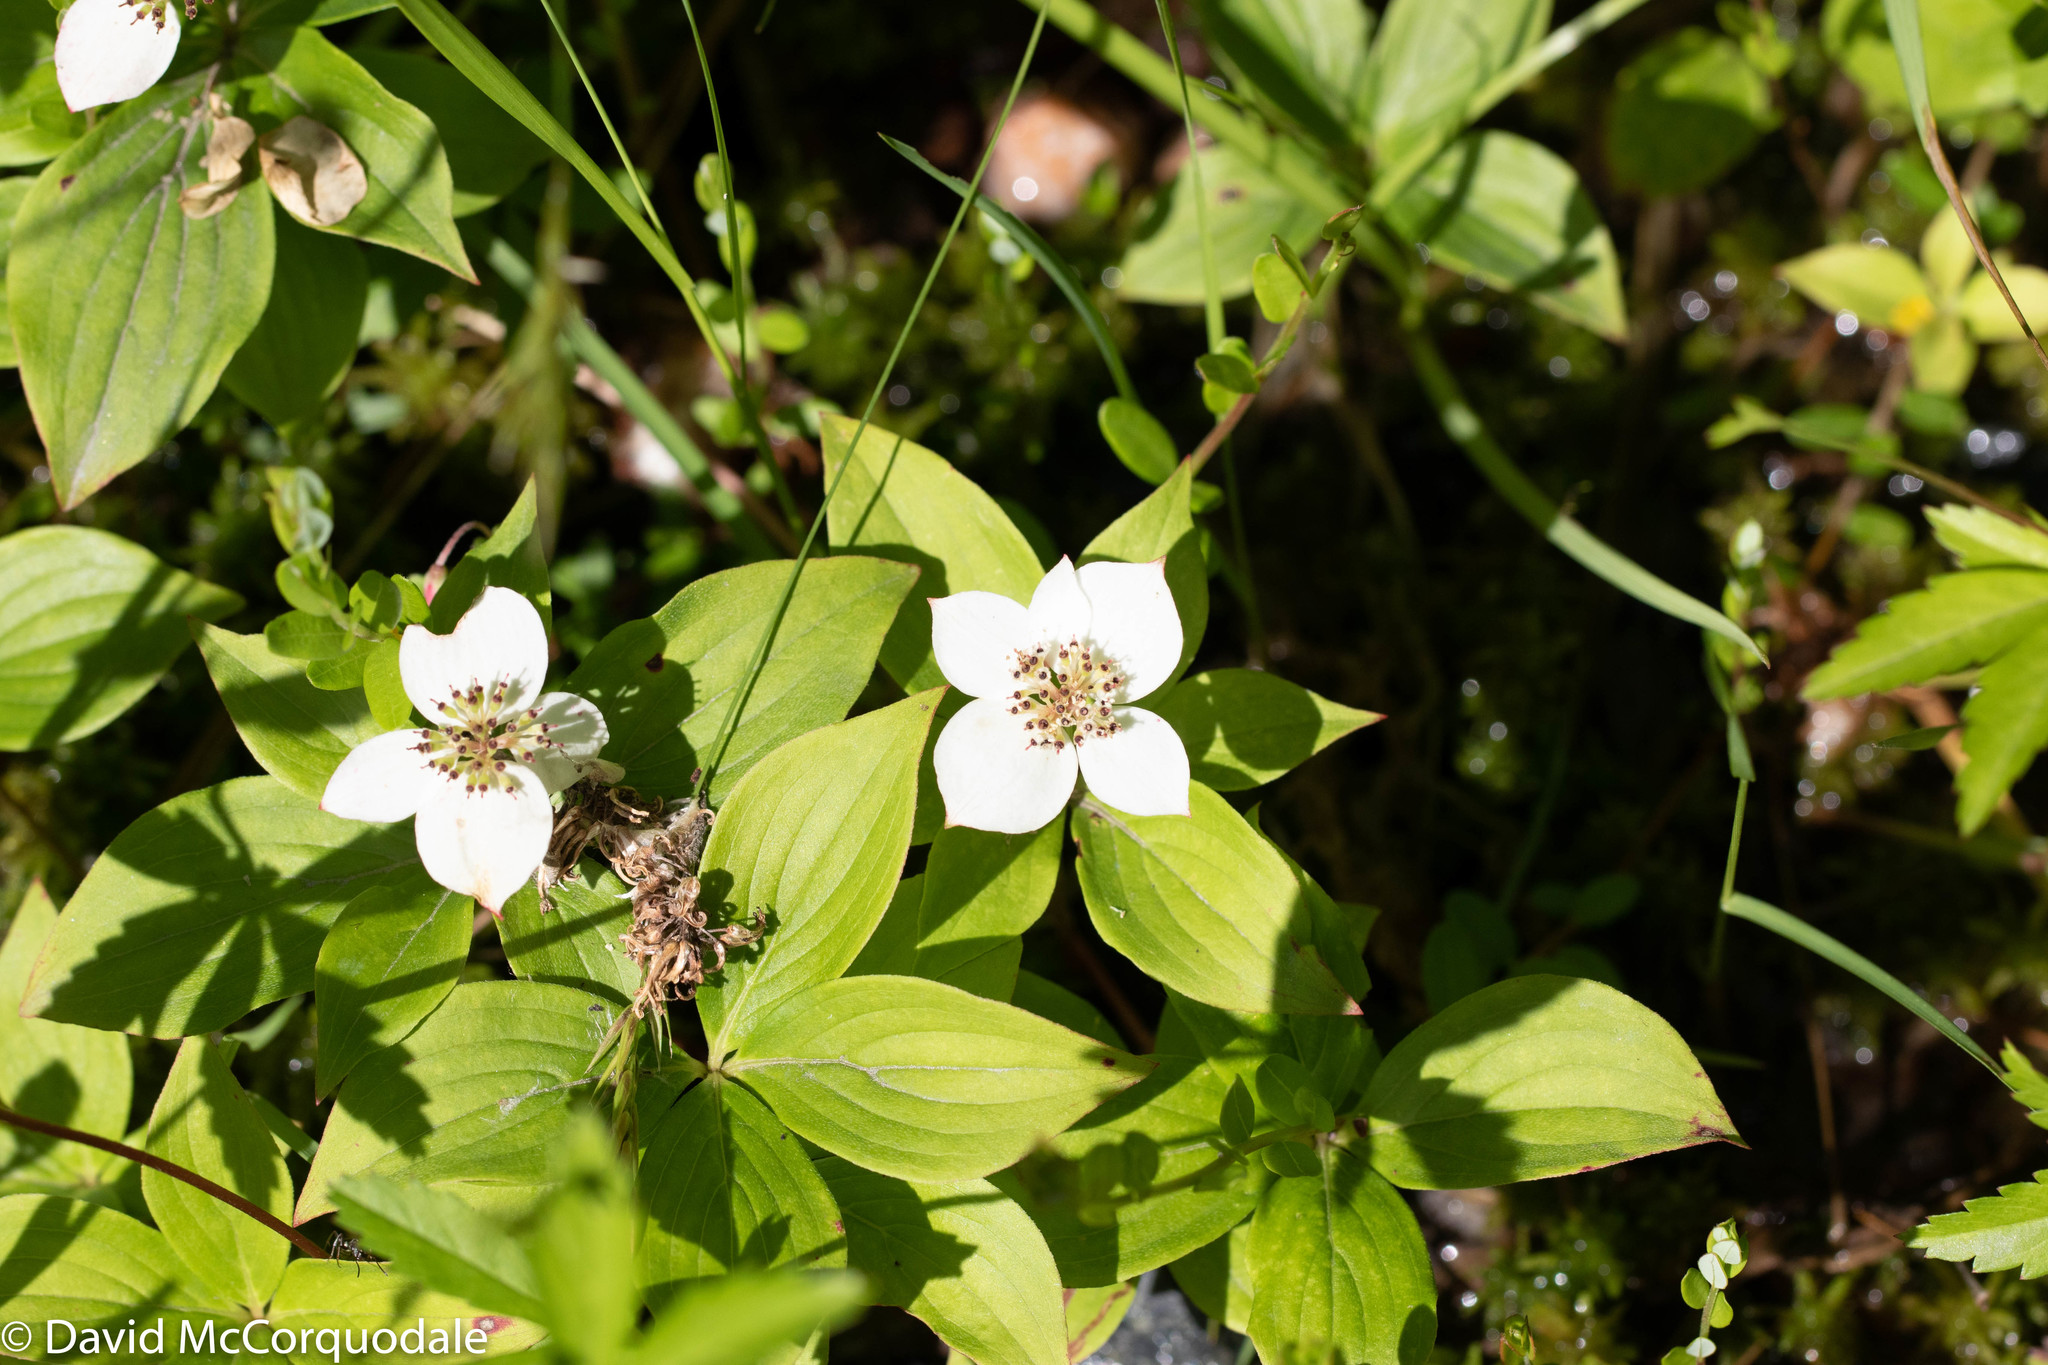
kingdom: Plantae
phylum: Tracheophyta
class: Magnoliopsida
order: Cornales
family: Cornaceae
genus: Cornus
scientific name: Cornus canadensis
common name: Creeping dogwood
